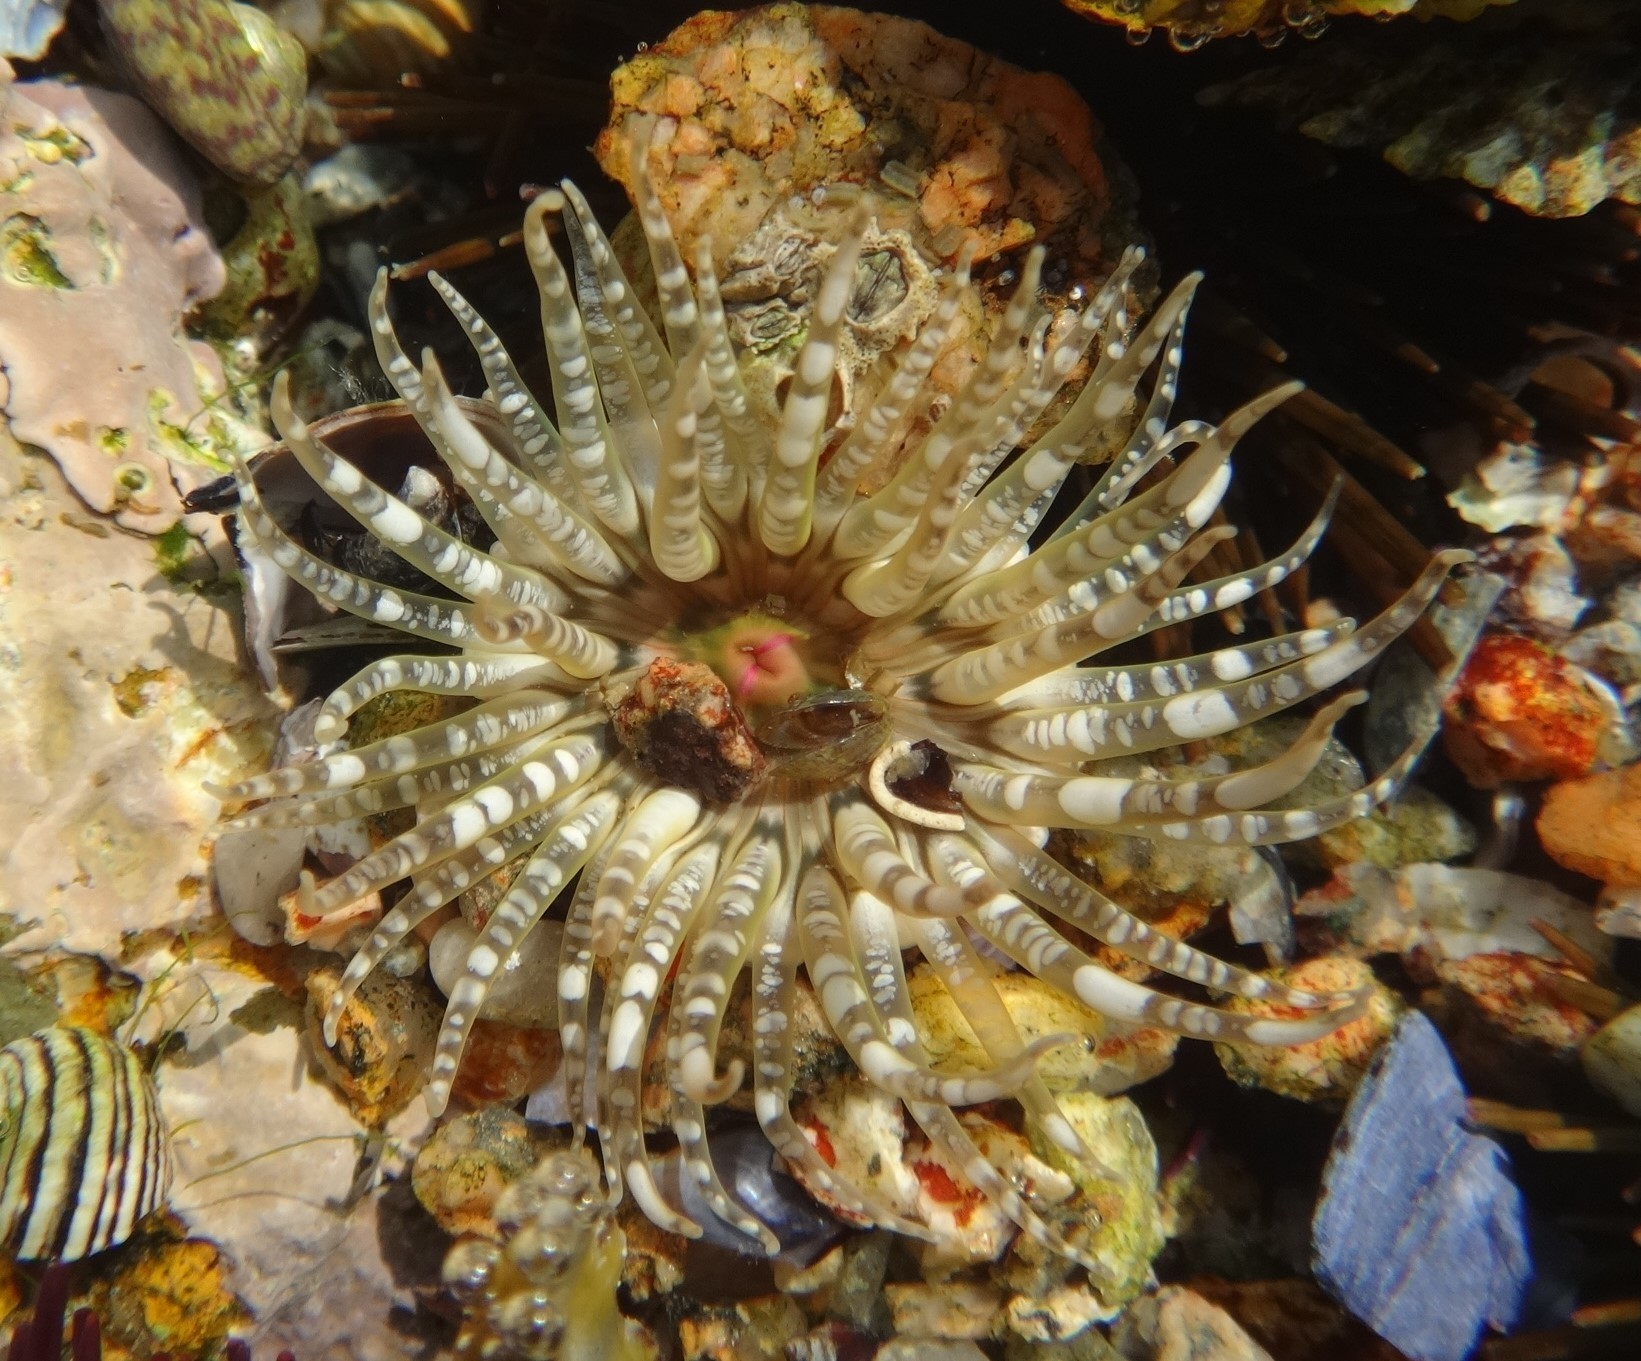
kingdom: Animalia
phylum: Cnidaria
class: Anthozoa
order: Actiniaria
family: Actiniidae
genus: Bunodactis
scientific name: Bunodactis verrucosa
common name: Gem anemone
